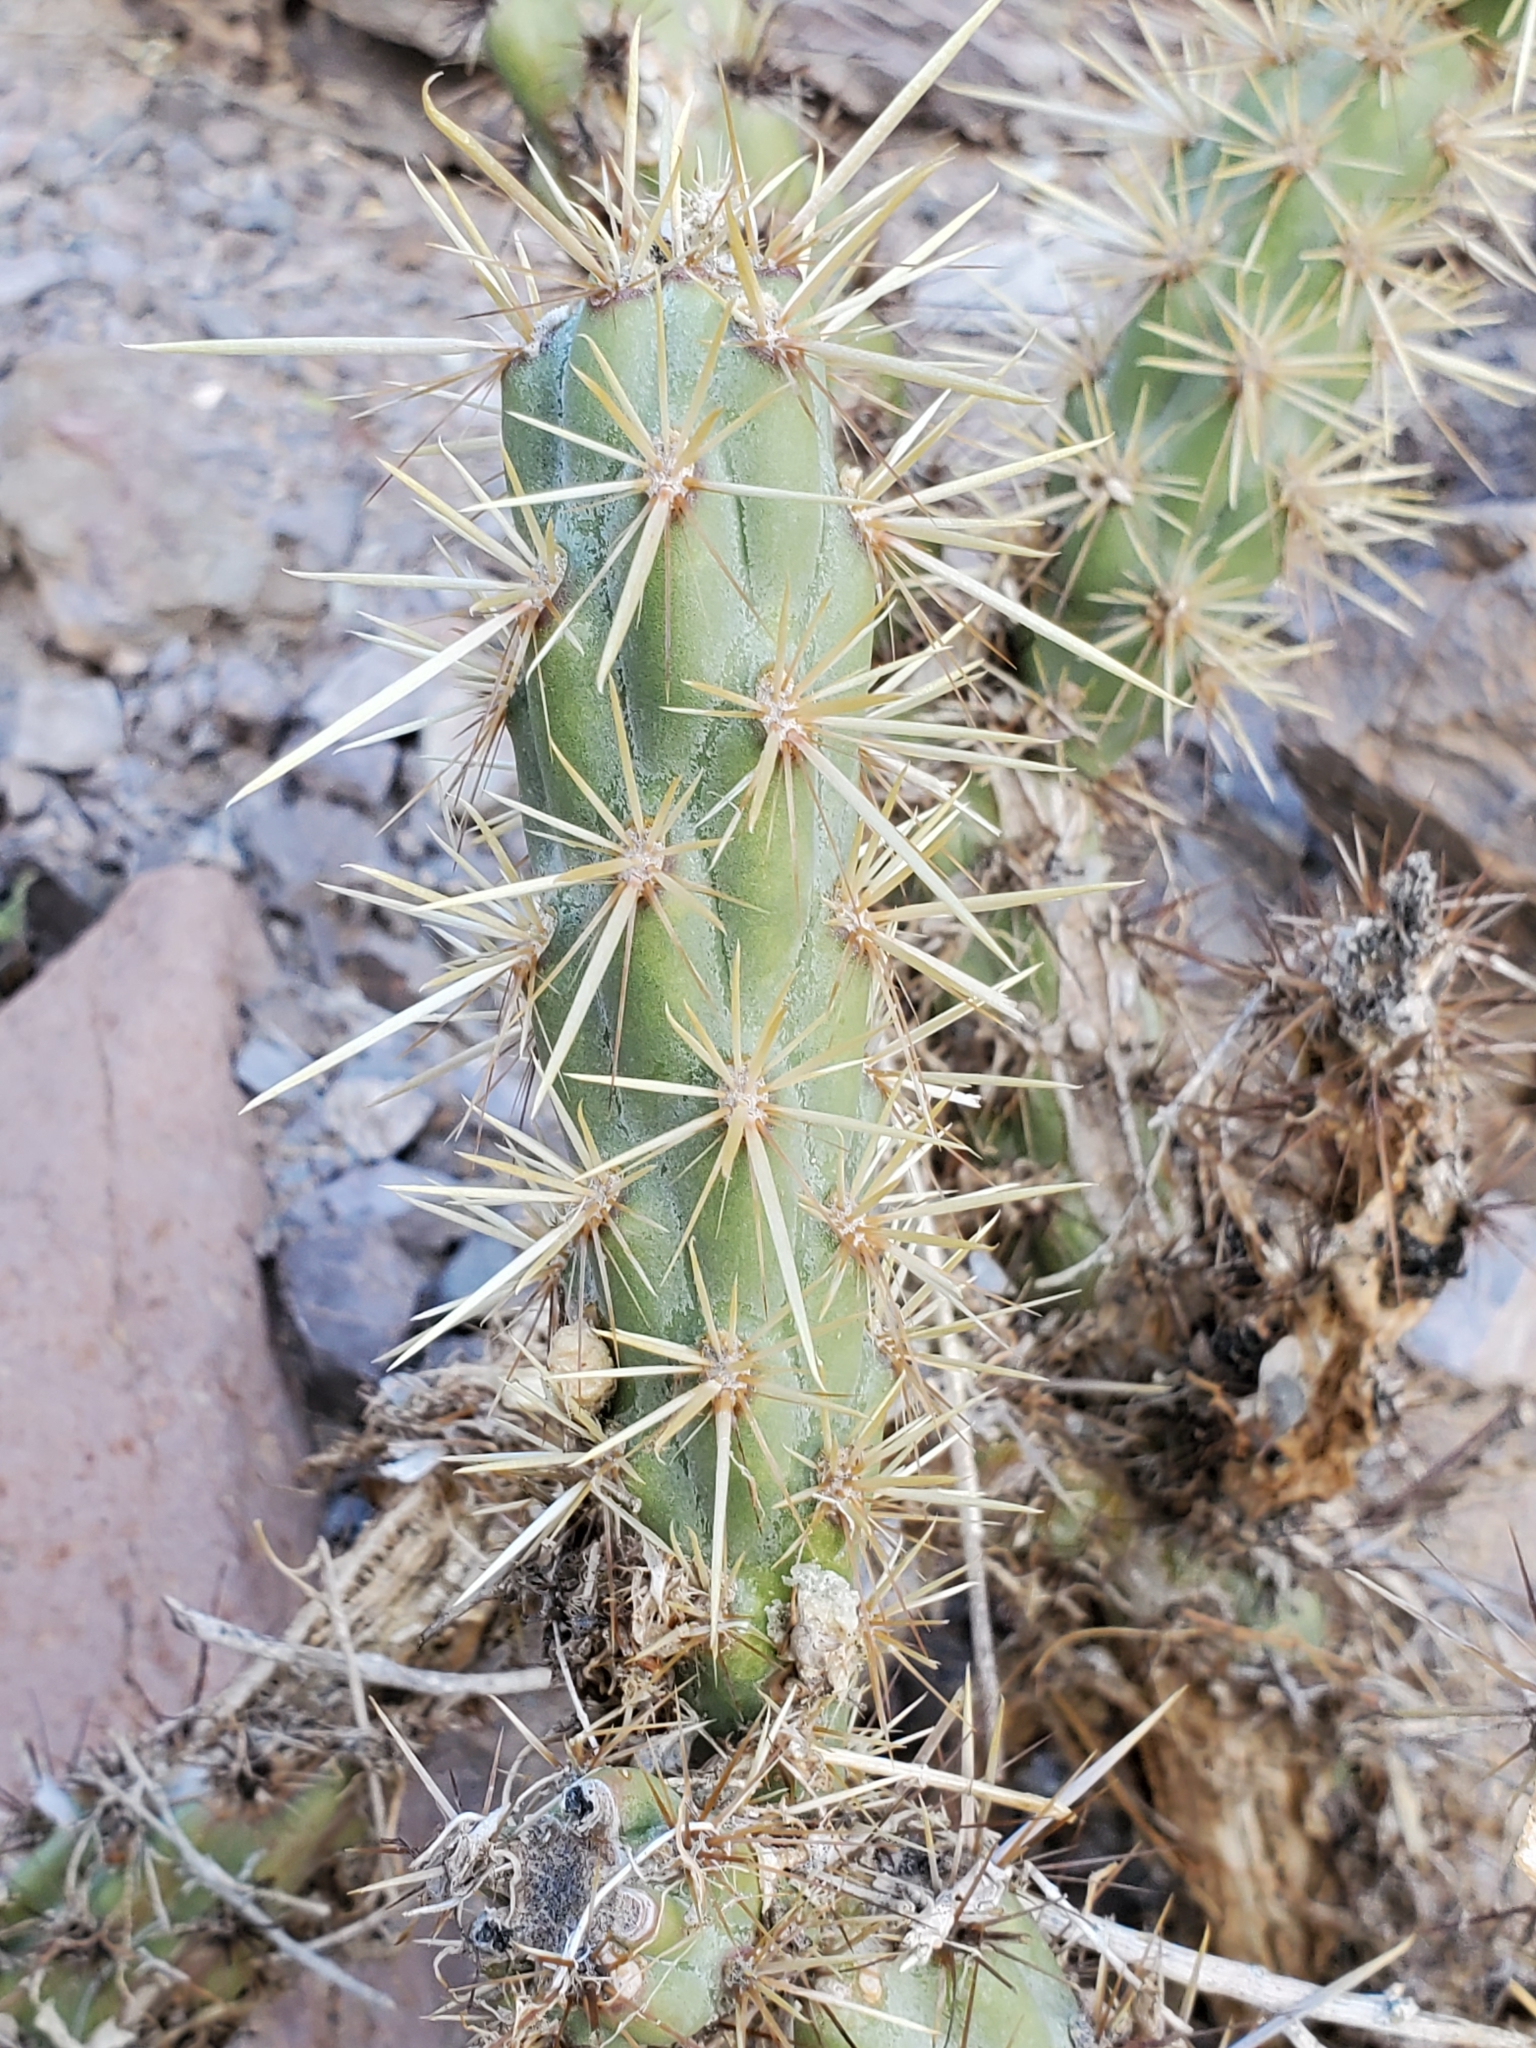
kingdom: Plantae
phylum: Tracheophyta
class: Magnoliopsida
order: Caryophyllales
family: Cactaceae
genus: Cylindropuntia
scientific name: Cylindropuntia acanthocarpa
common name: Buckhorn cholla
